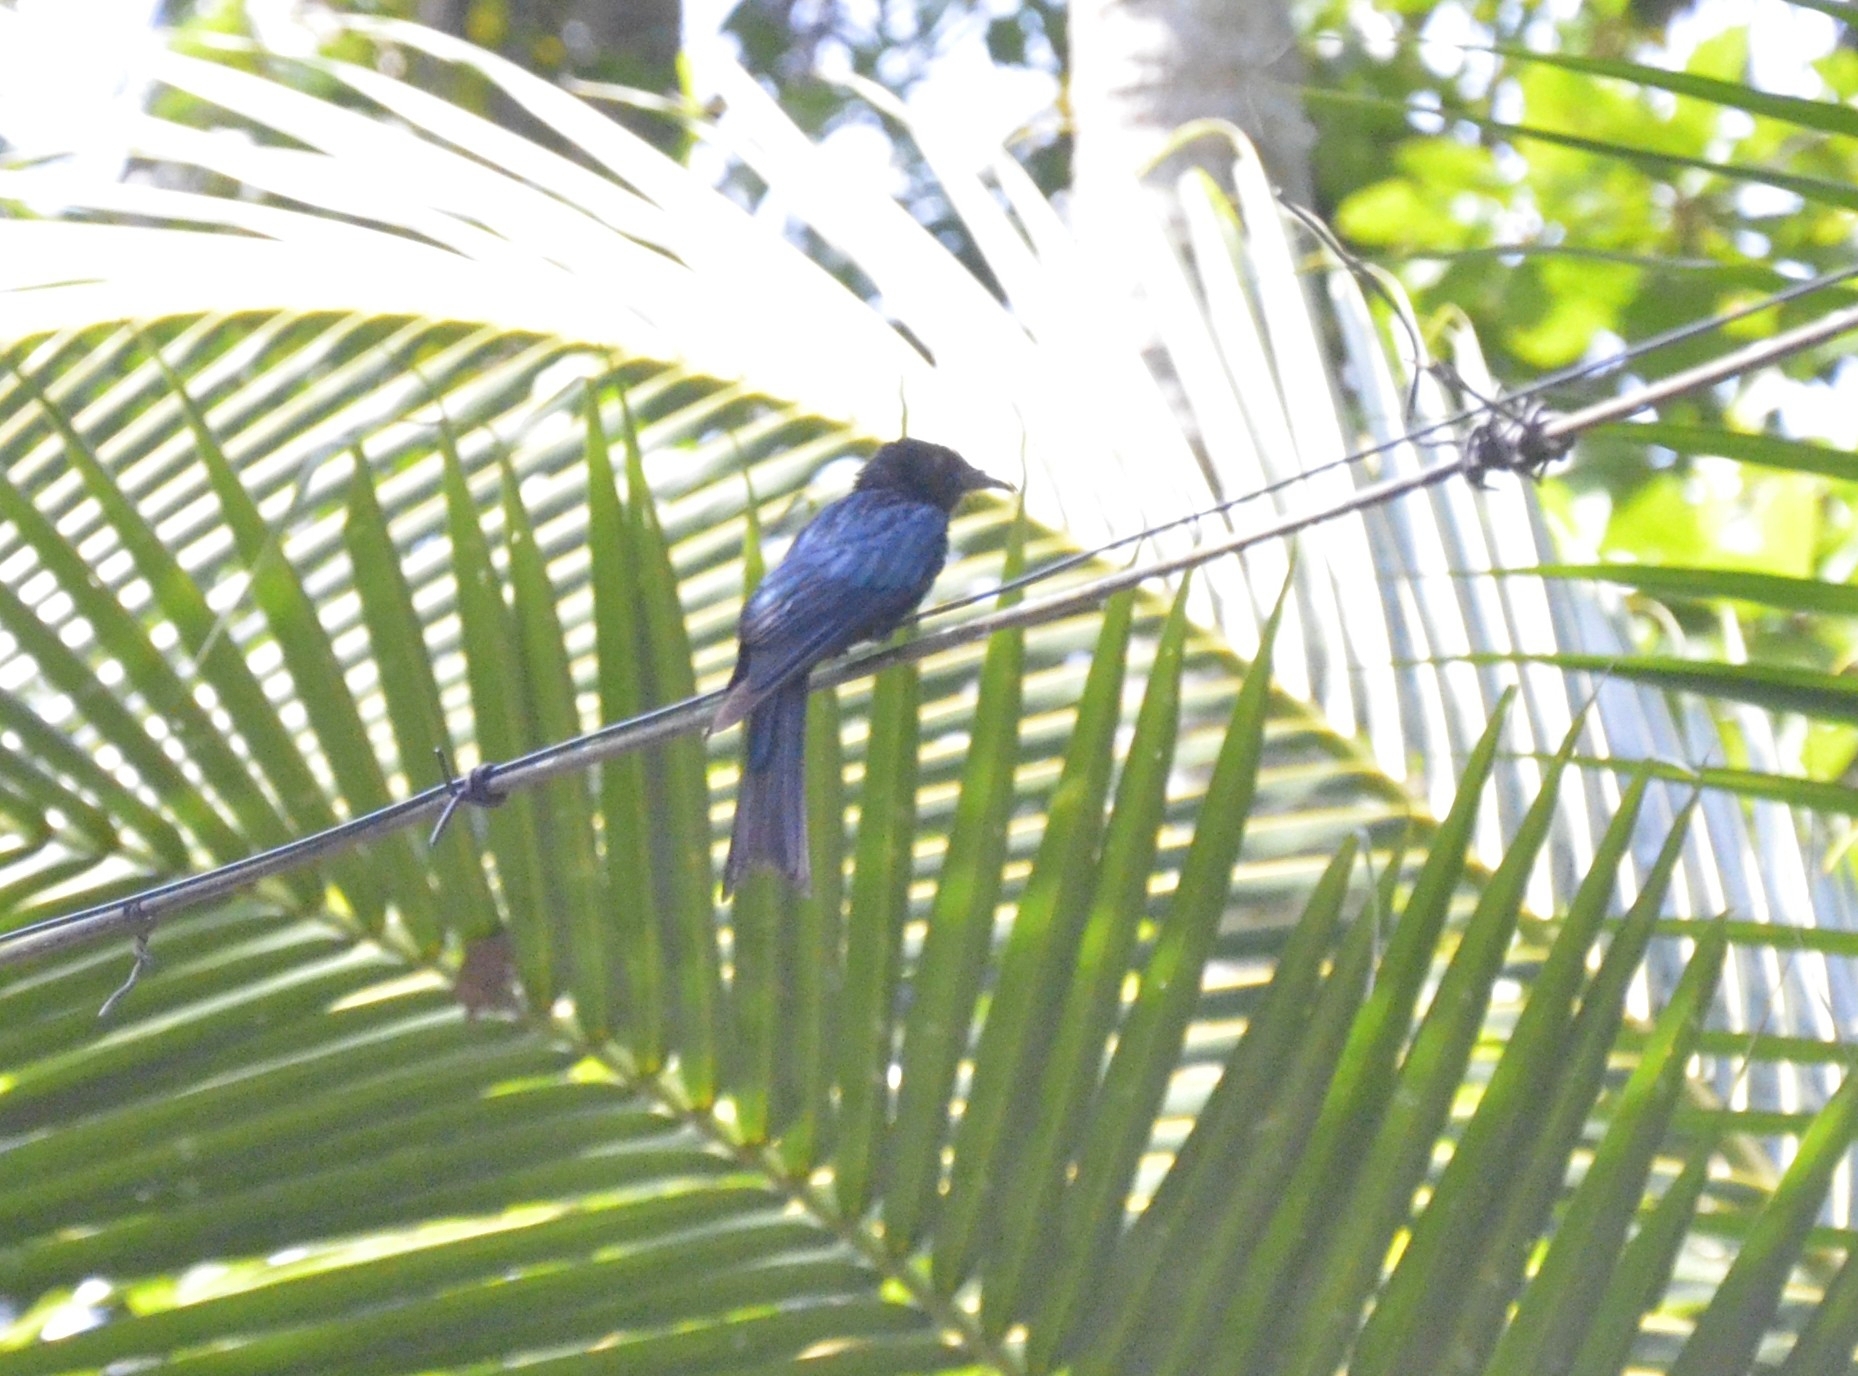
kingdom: Animalia
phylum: Chordata
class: Aves
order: Passeriformes
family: Dicruridae
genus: Dicrurus
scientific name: Dicrurus aeneus
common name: Bronzed drongo
